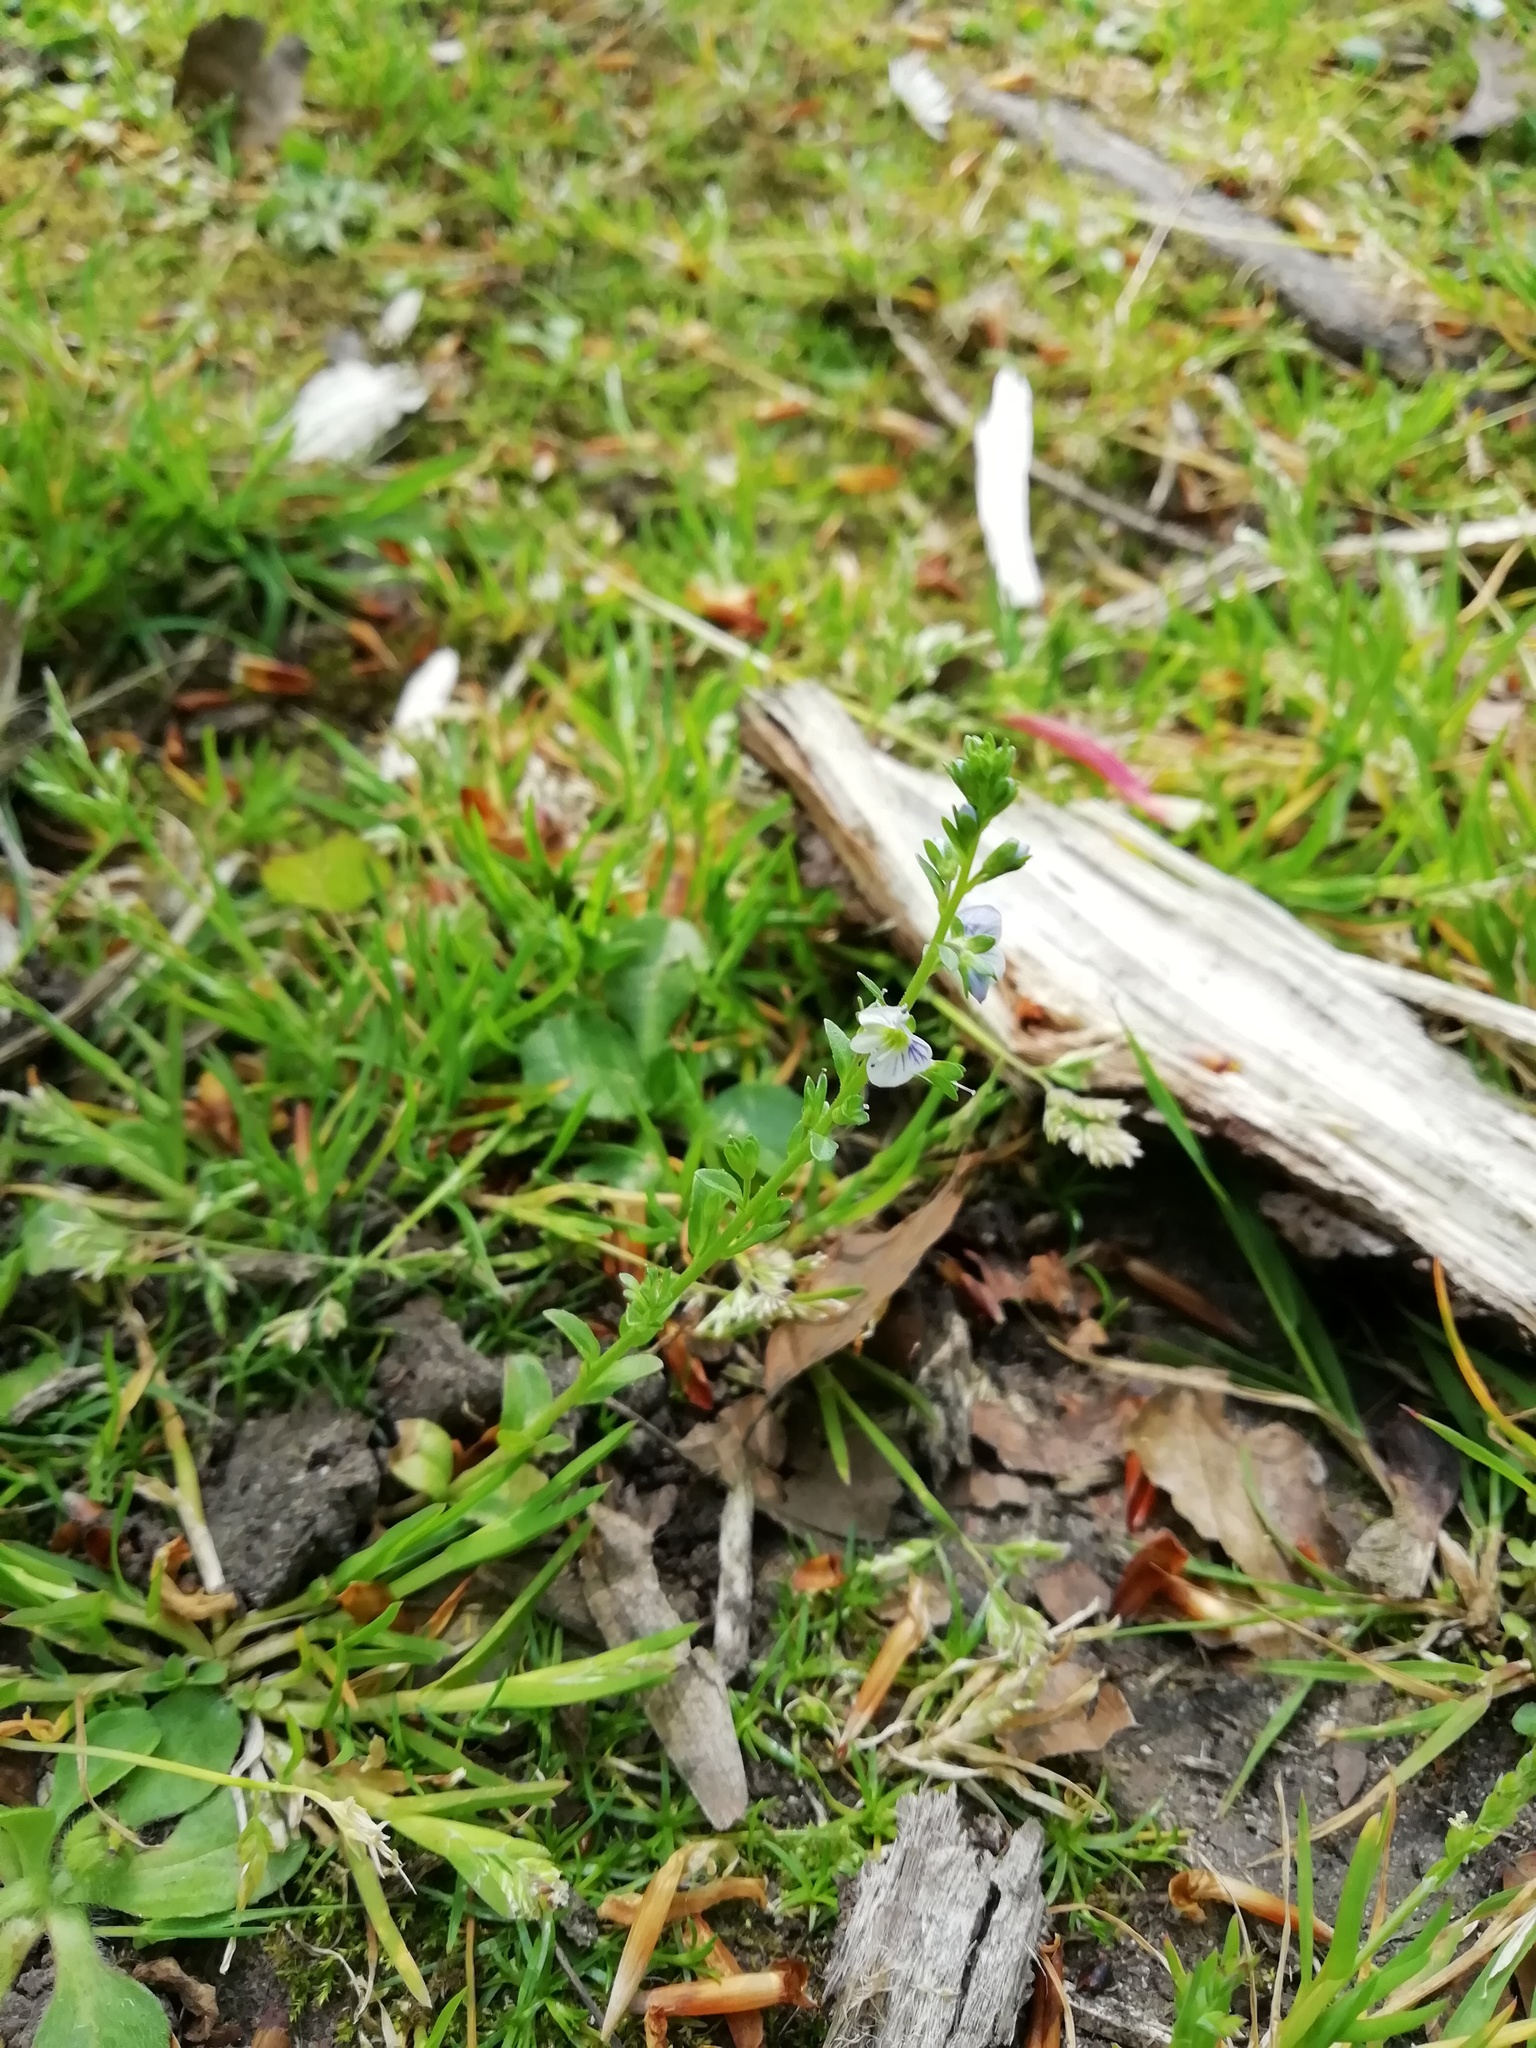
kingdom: Plantae
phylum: Tracheophyta
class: Magnoliopsida
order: Lamiales
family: Plantaginaceae
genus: Veronica
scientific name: Veronica serpyllifolia
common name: Thyme-leaved speedwell
